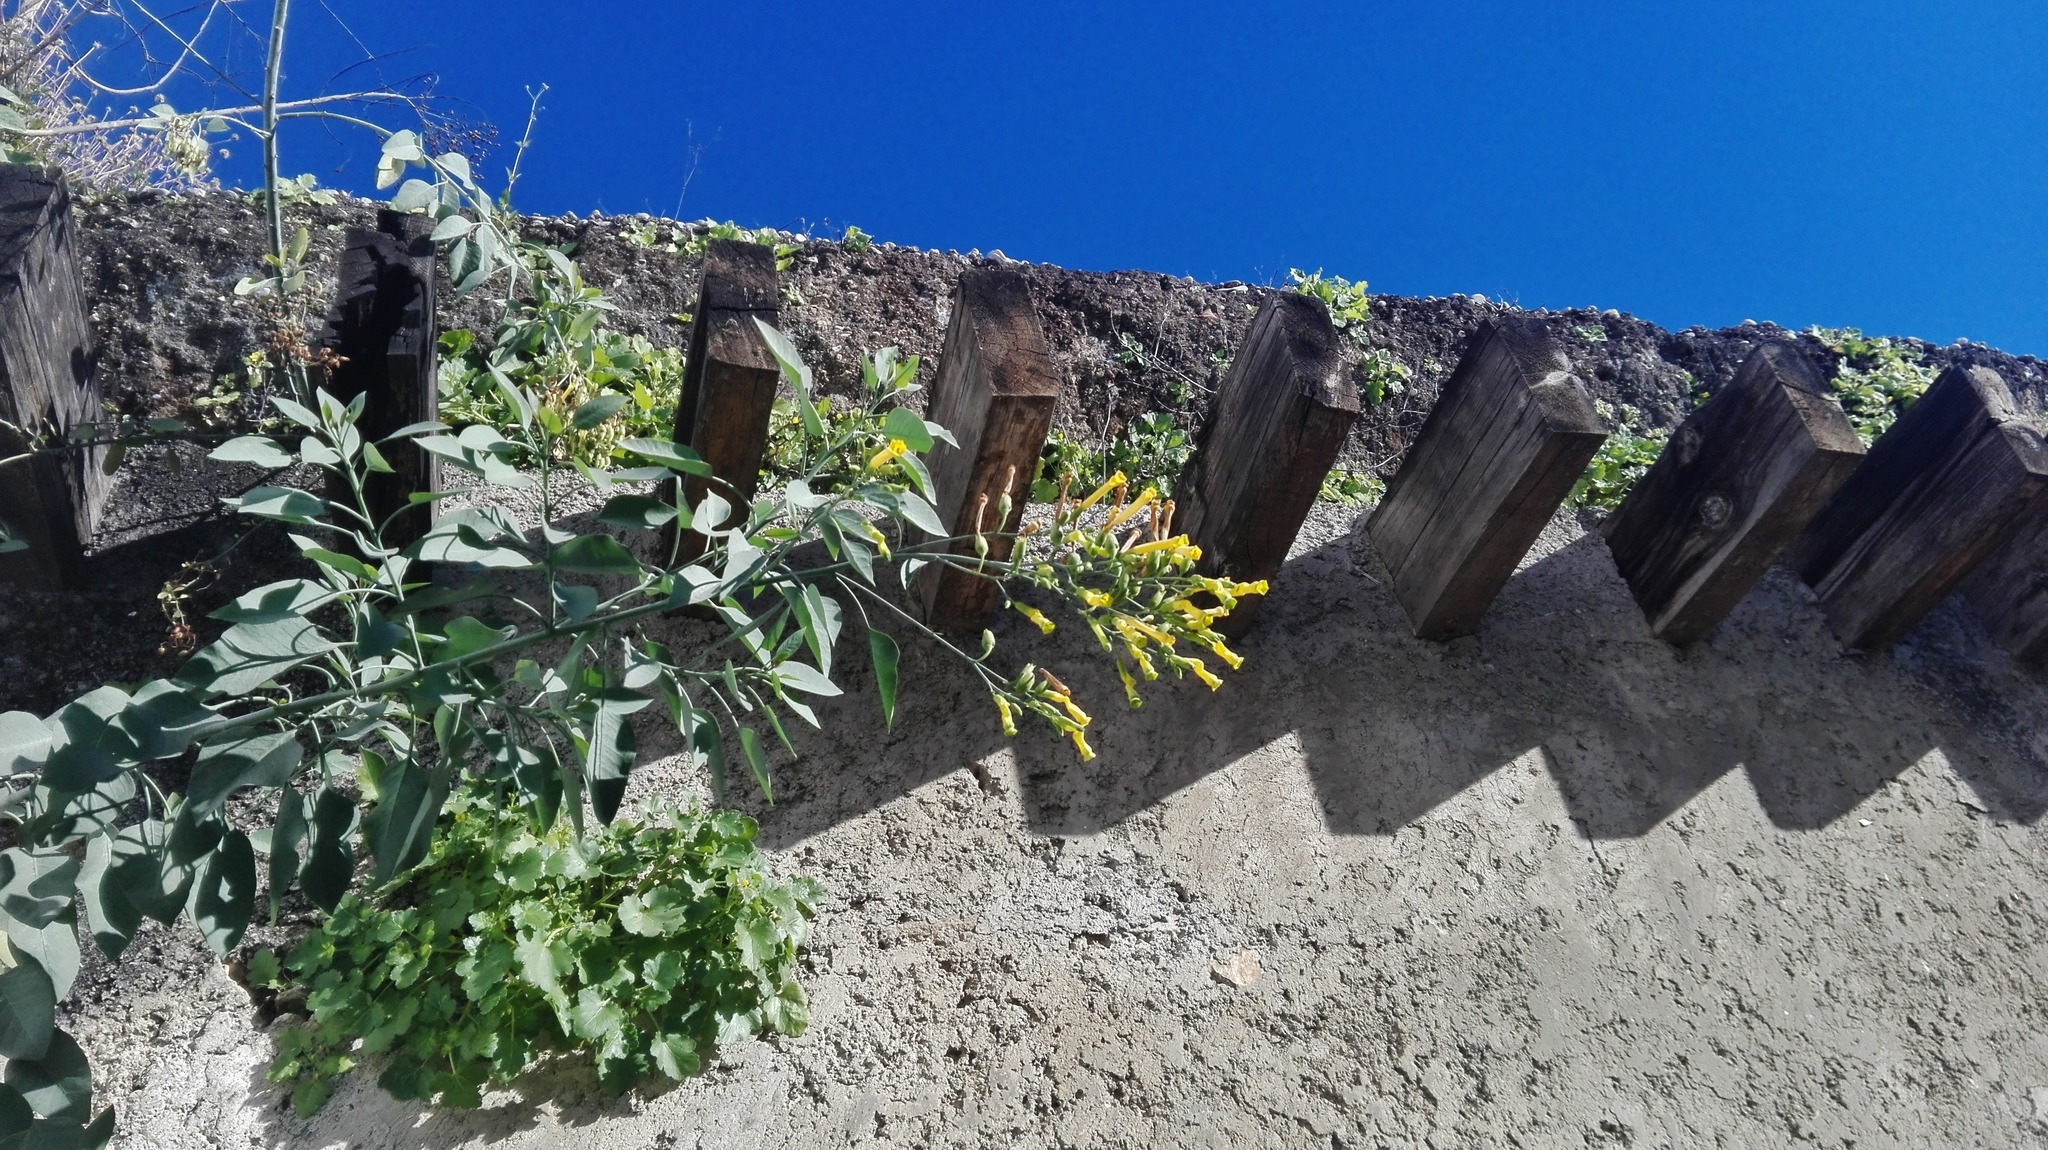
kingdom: Plantae
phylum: Tracheophyta
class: Magnoliopsida
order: Solanales
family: Solanaceae
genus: Nicotiana
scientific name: Nicotiana glauca
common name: Tree tobacco
